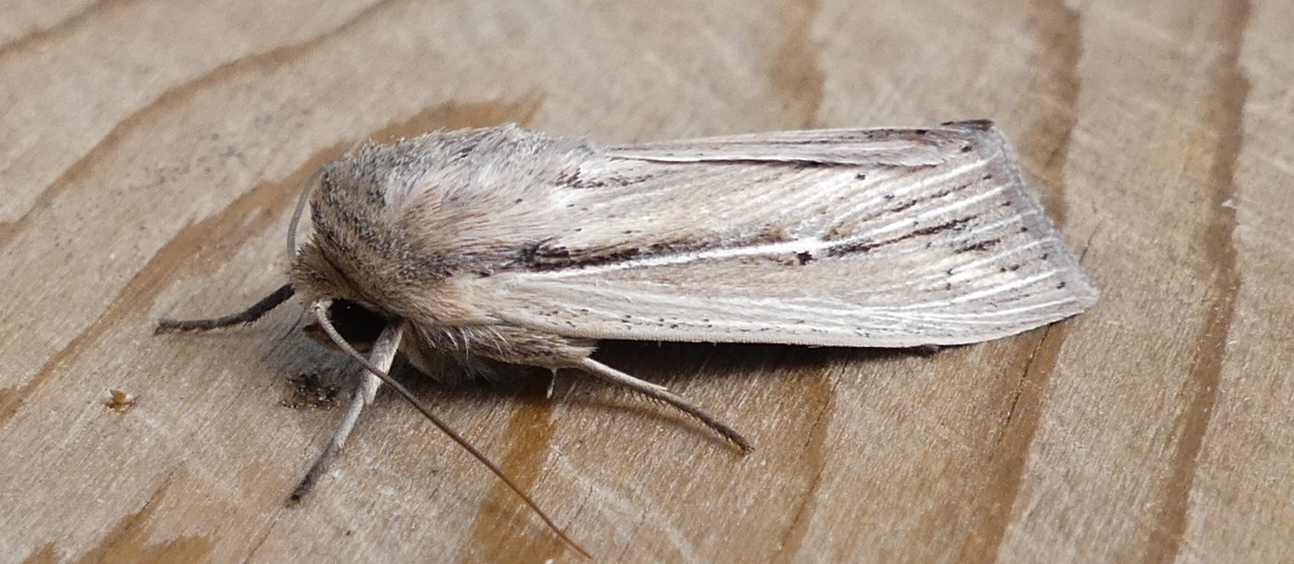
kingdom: Animalia
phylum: Arthropoda
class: Insecta
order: Lepidoptera
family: Noctuidae
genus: Leucania
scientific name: Leucania commoides
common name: Two-lined wainscot
